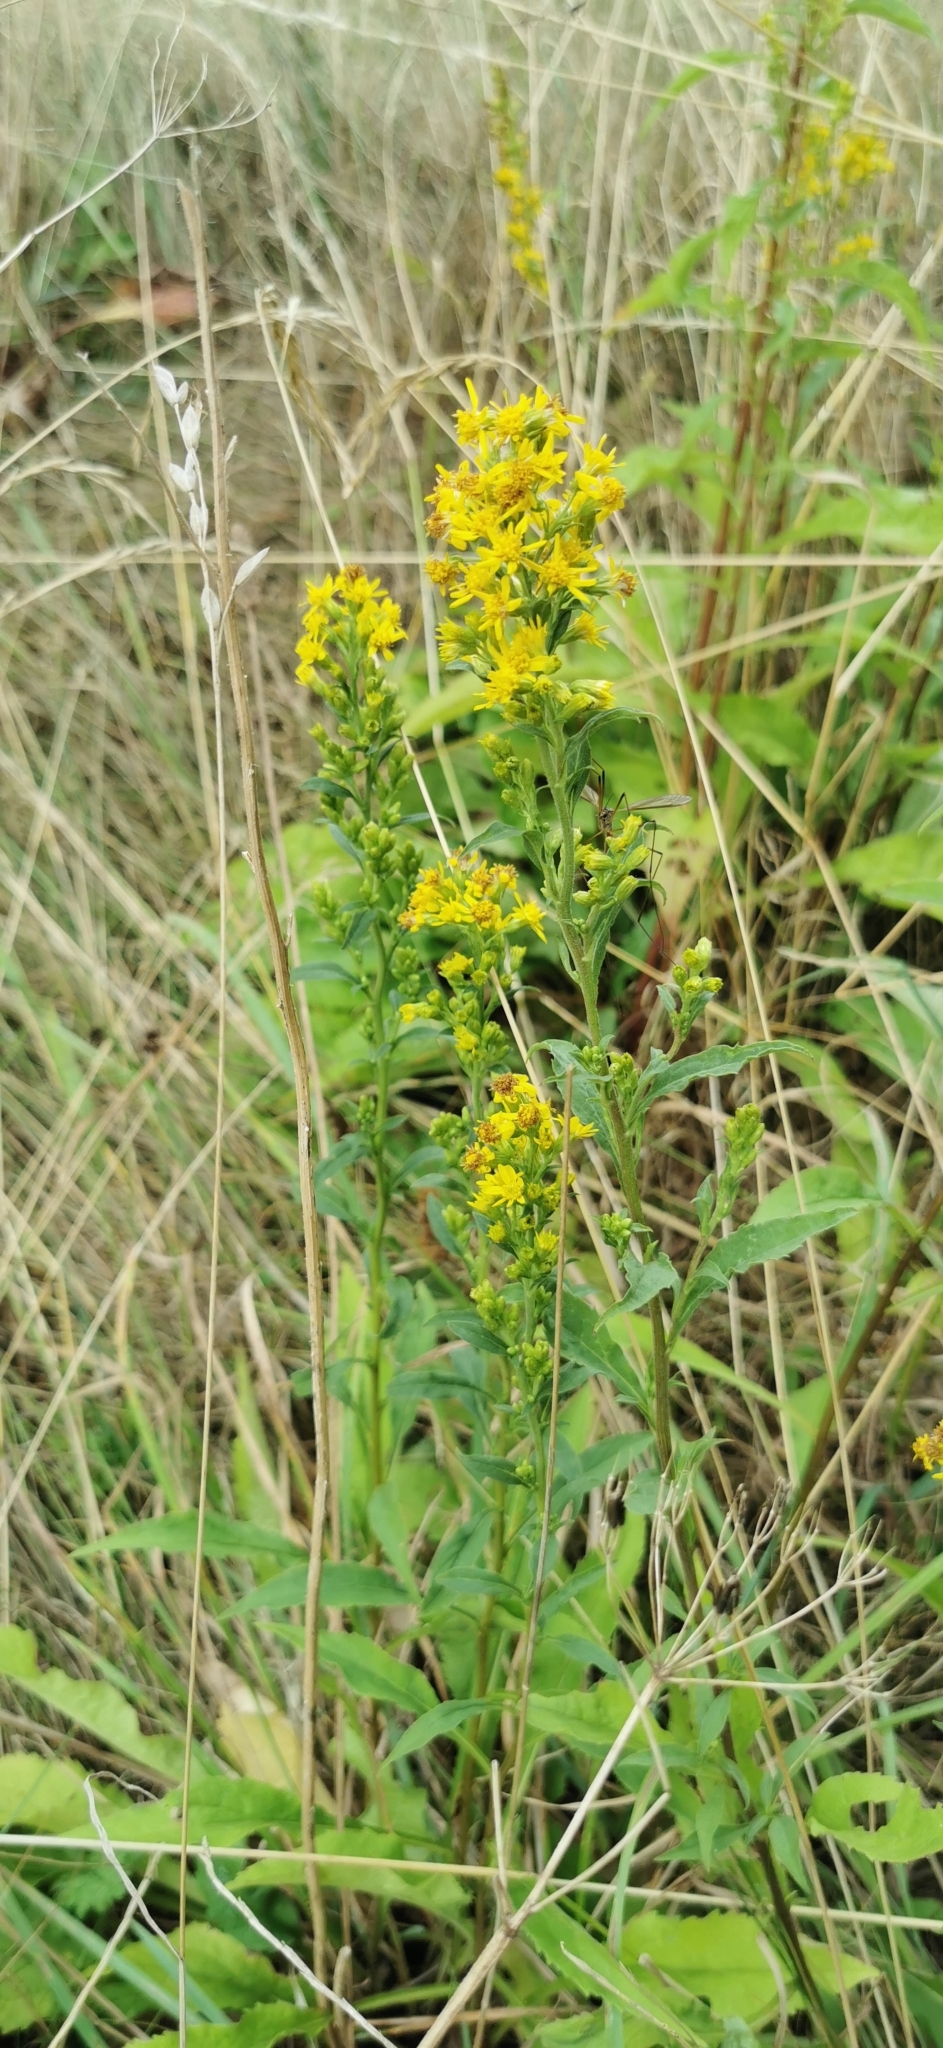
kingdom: Plantae
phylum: Tracheophyta
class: Magnoliopsida
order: Asterales
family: Asteraceae
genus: Solidago
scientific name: Solidago virgaurea
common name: Goldenrod
